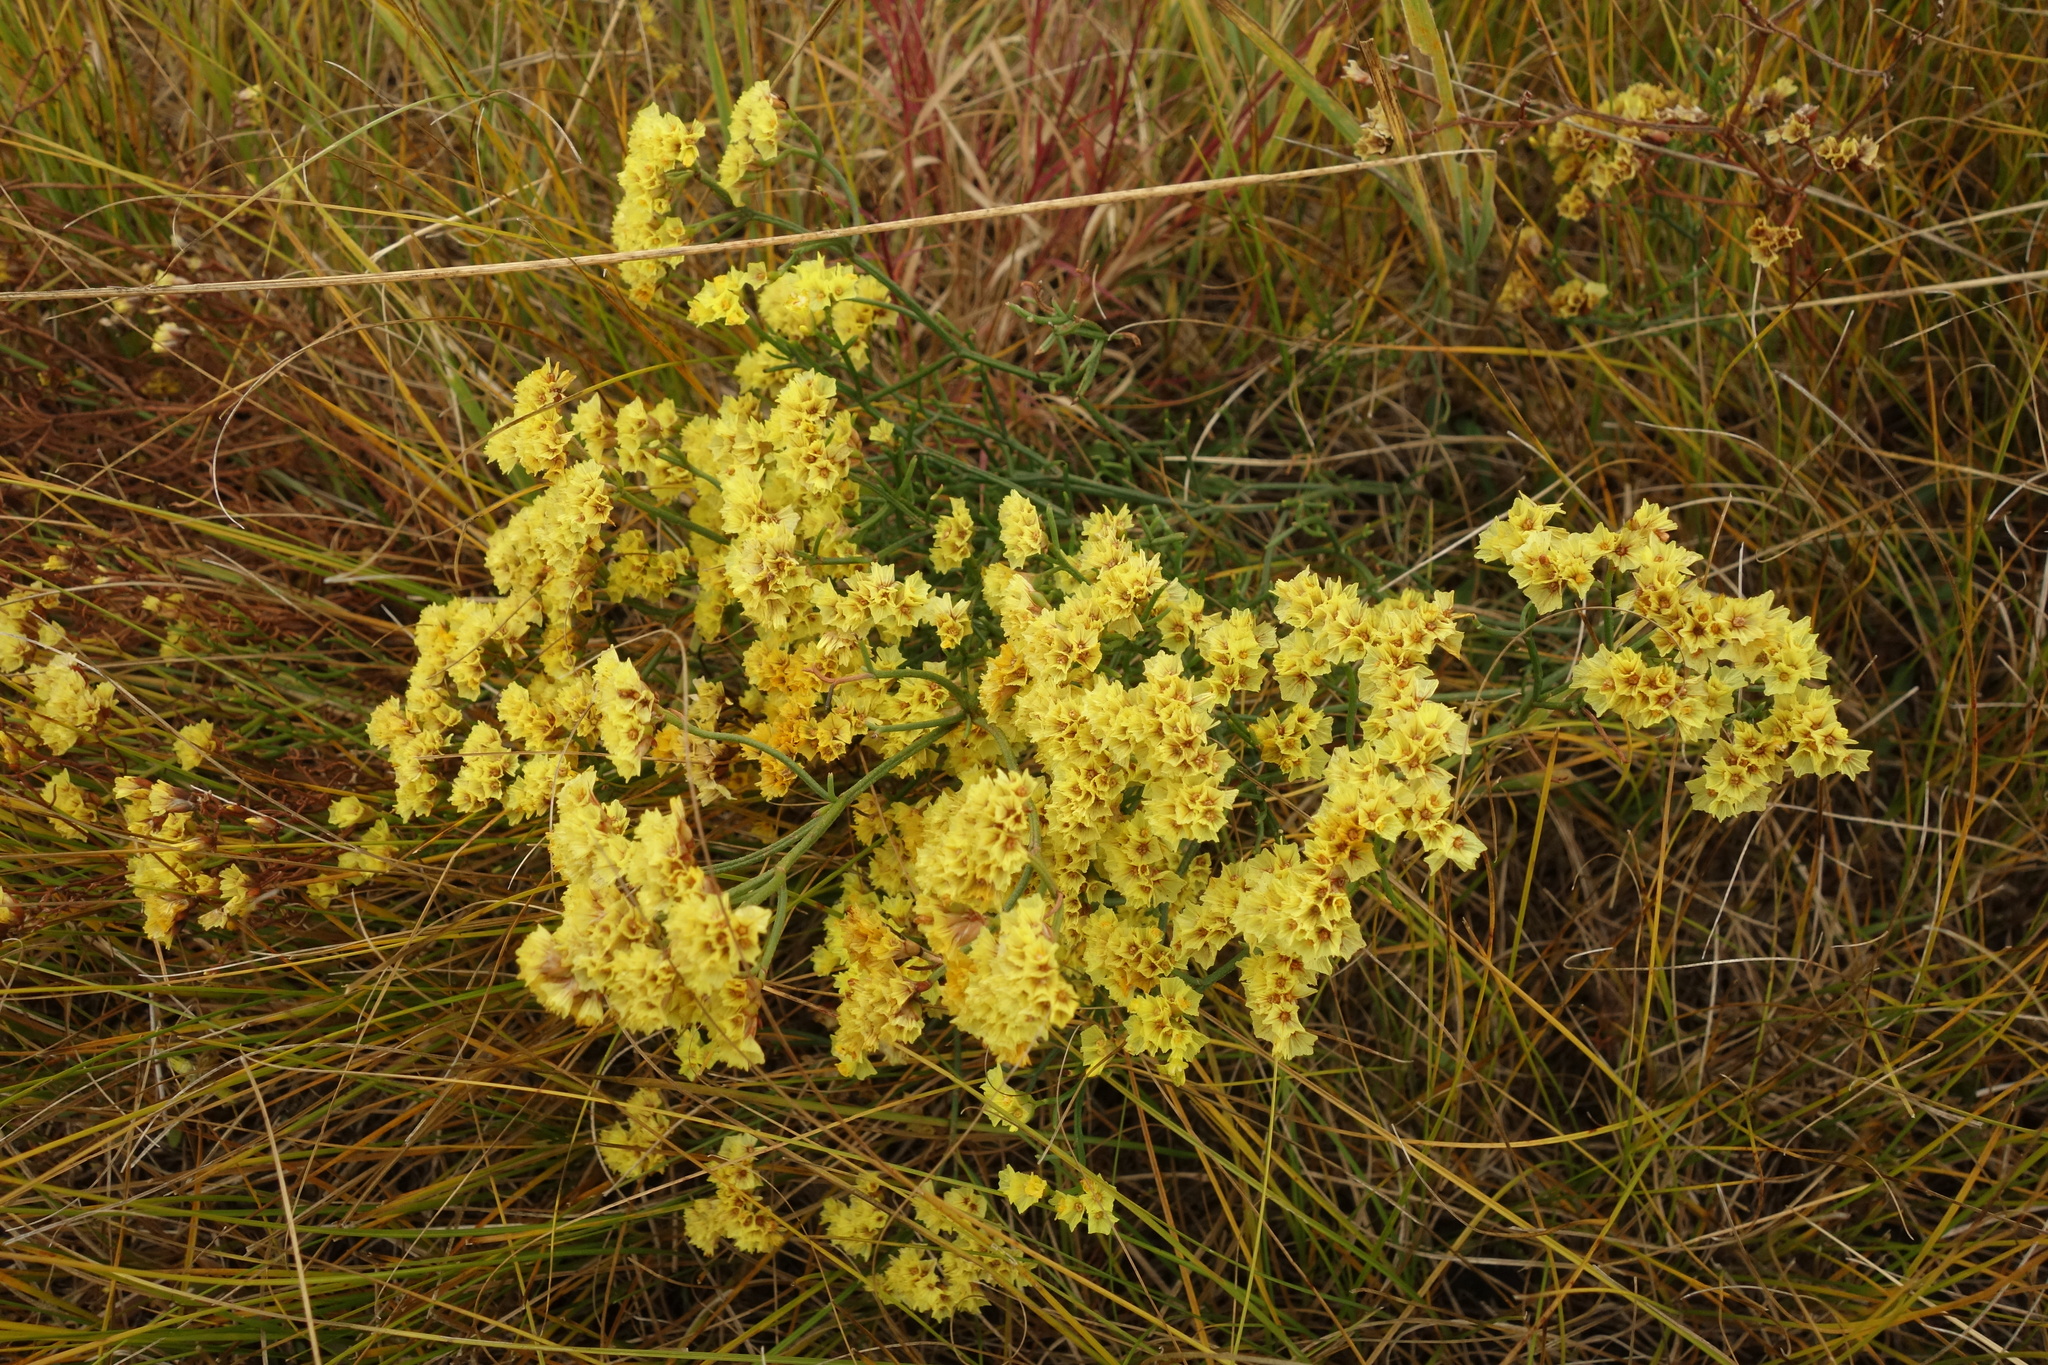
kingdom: Plantae
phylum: Tracheophyta
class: Magnoliopsida
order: Caryophyllales
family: Plumbaginaceae
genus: Limonium
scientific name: Limonium aureum
